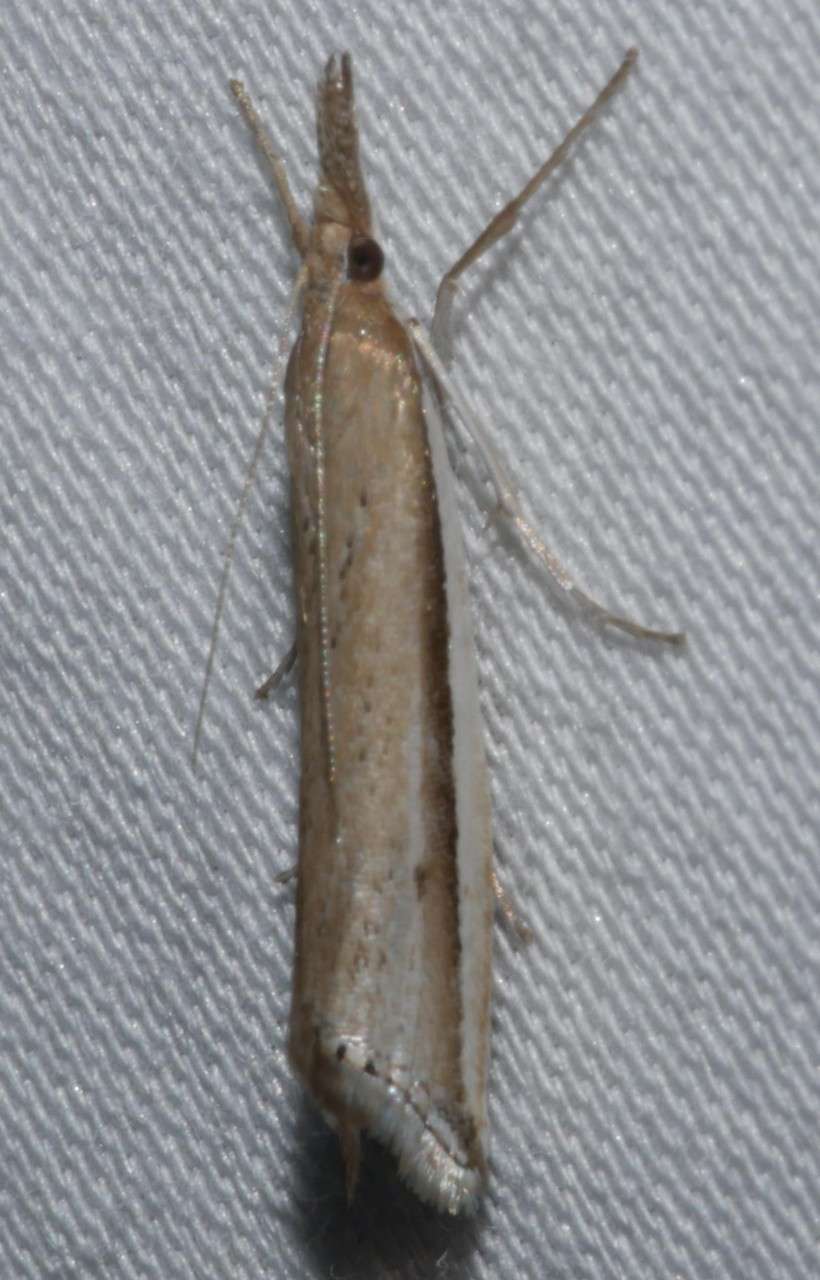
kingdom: Animalia
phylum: Arthropoda
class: Insecta
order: Lepidoptera
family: Crambidae
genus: Hednota
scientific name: Hednota acontophora
